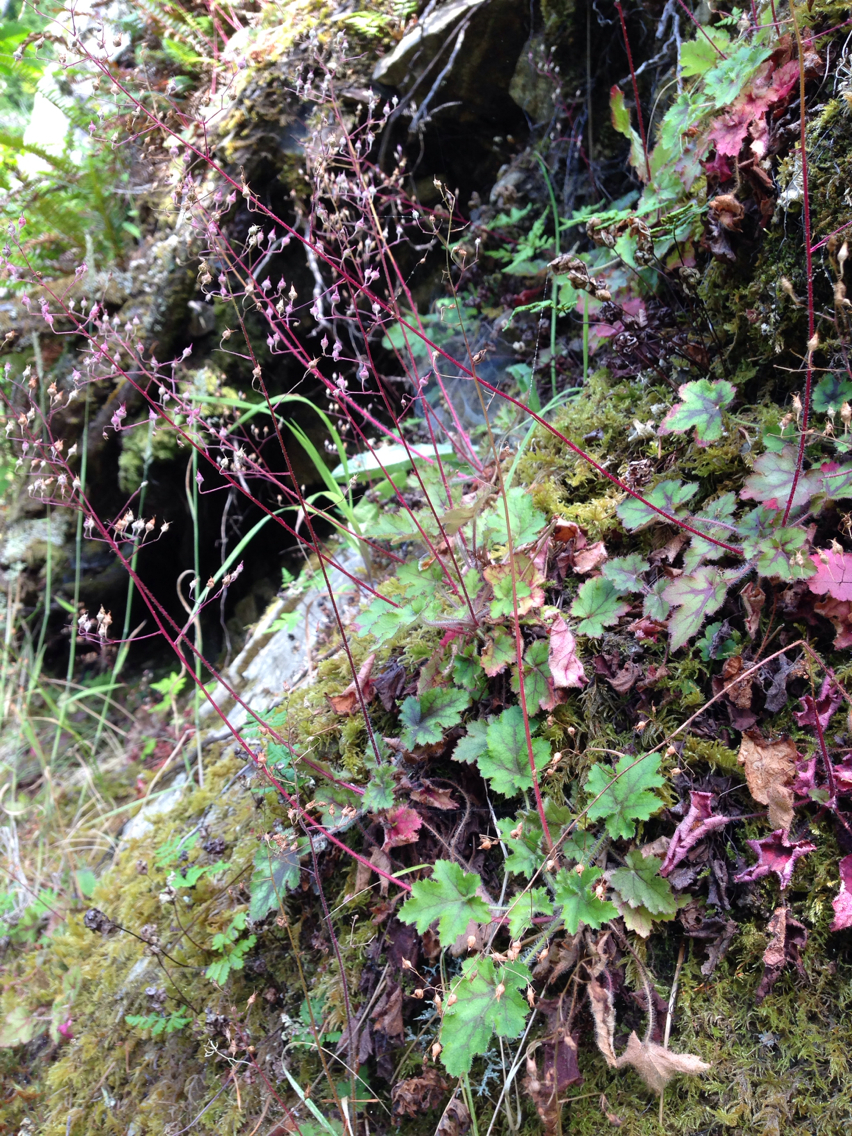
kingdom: Plantae
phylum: Tracheophyta
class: Magnoliopsida
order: Saxifragales
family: Saxifragaceae
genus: Heuchera
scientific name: Heuchera micrantha
